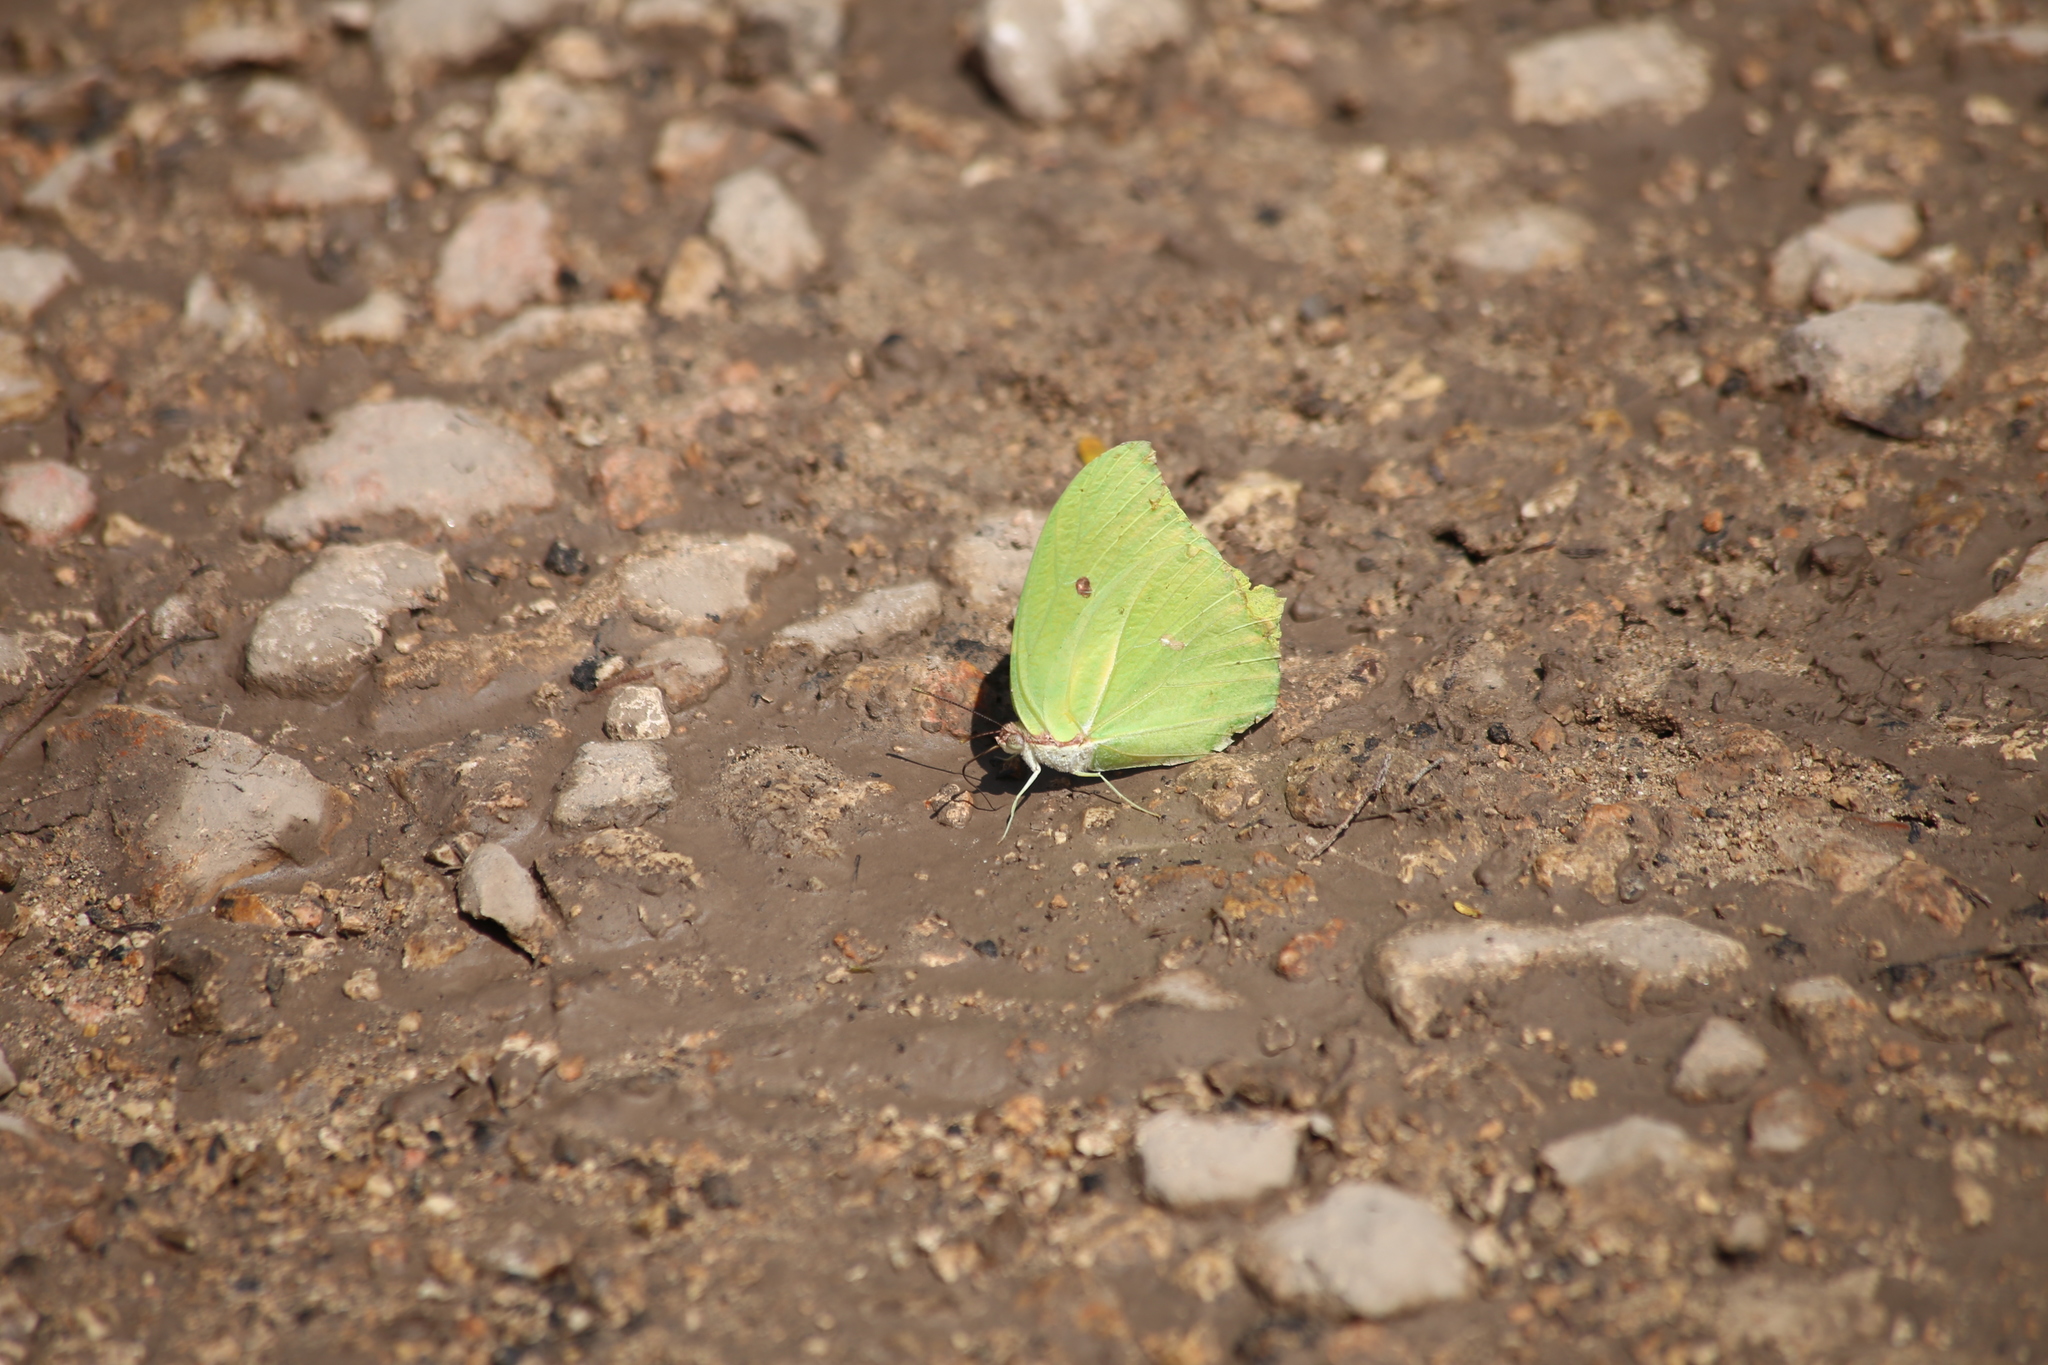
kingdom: Animalia
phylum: Arthropoda
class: Insecta
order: Lepidoptera
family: Pieridae
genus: Anteos
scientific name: Anteos maerula
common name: Angled sulphur
